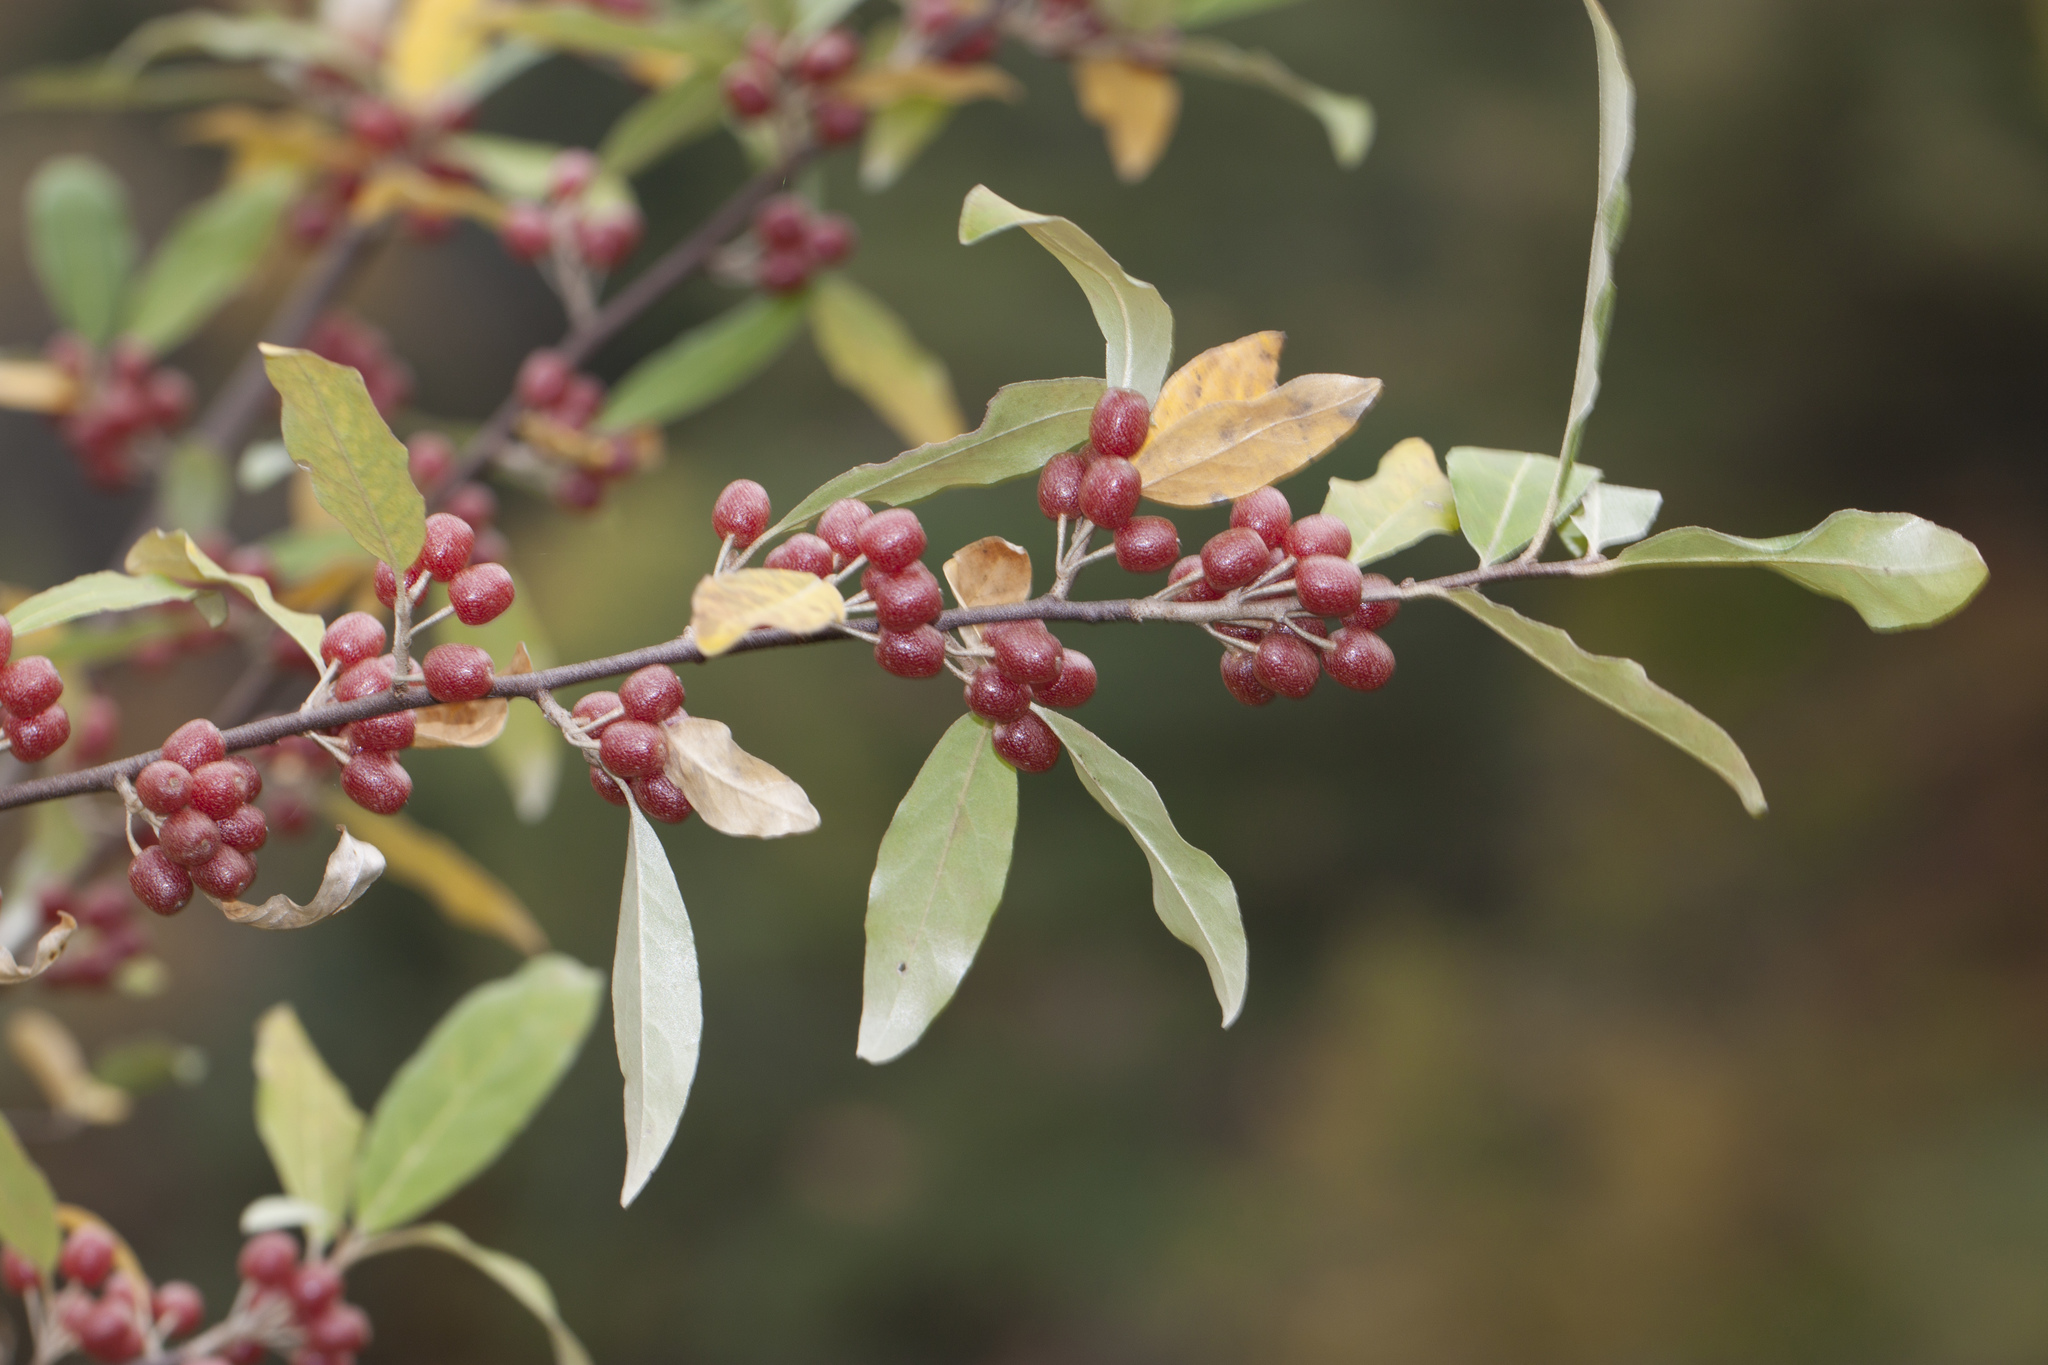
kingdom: Plantae
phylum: Tracheophyta
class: Magnoliopsida
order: Rosales
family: Elaeagnaceae
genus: Elaeagnus
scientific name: Elaeagnus umbellata
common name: Autumn olive
